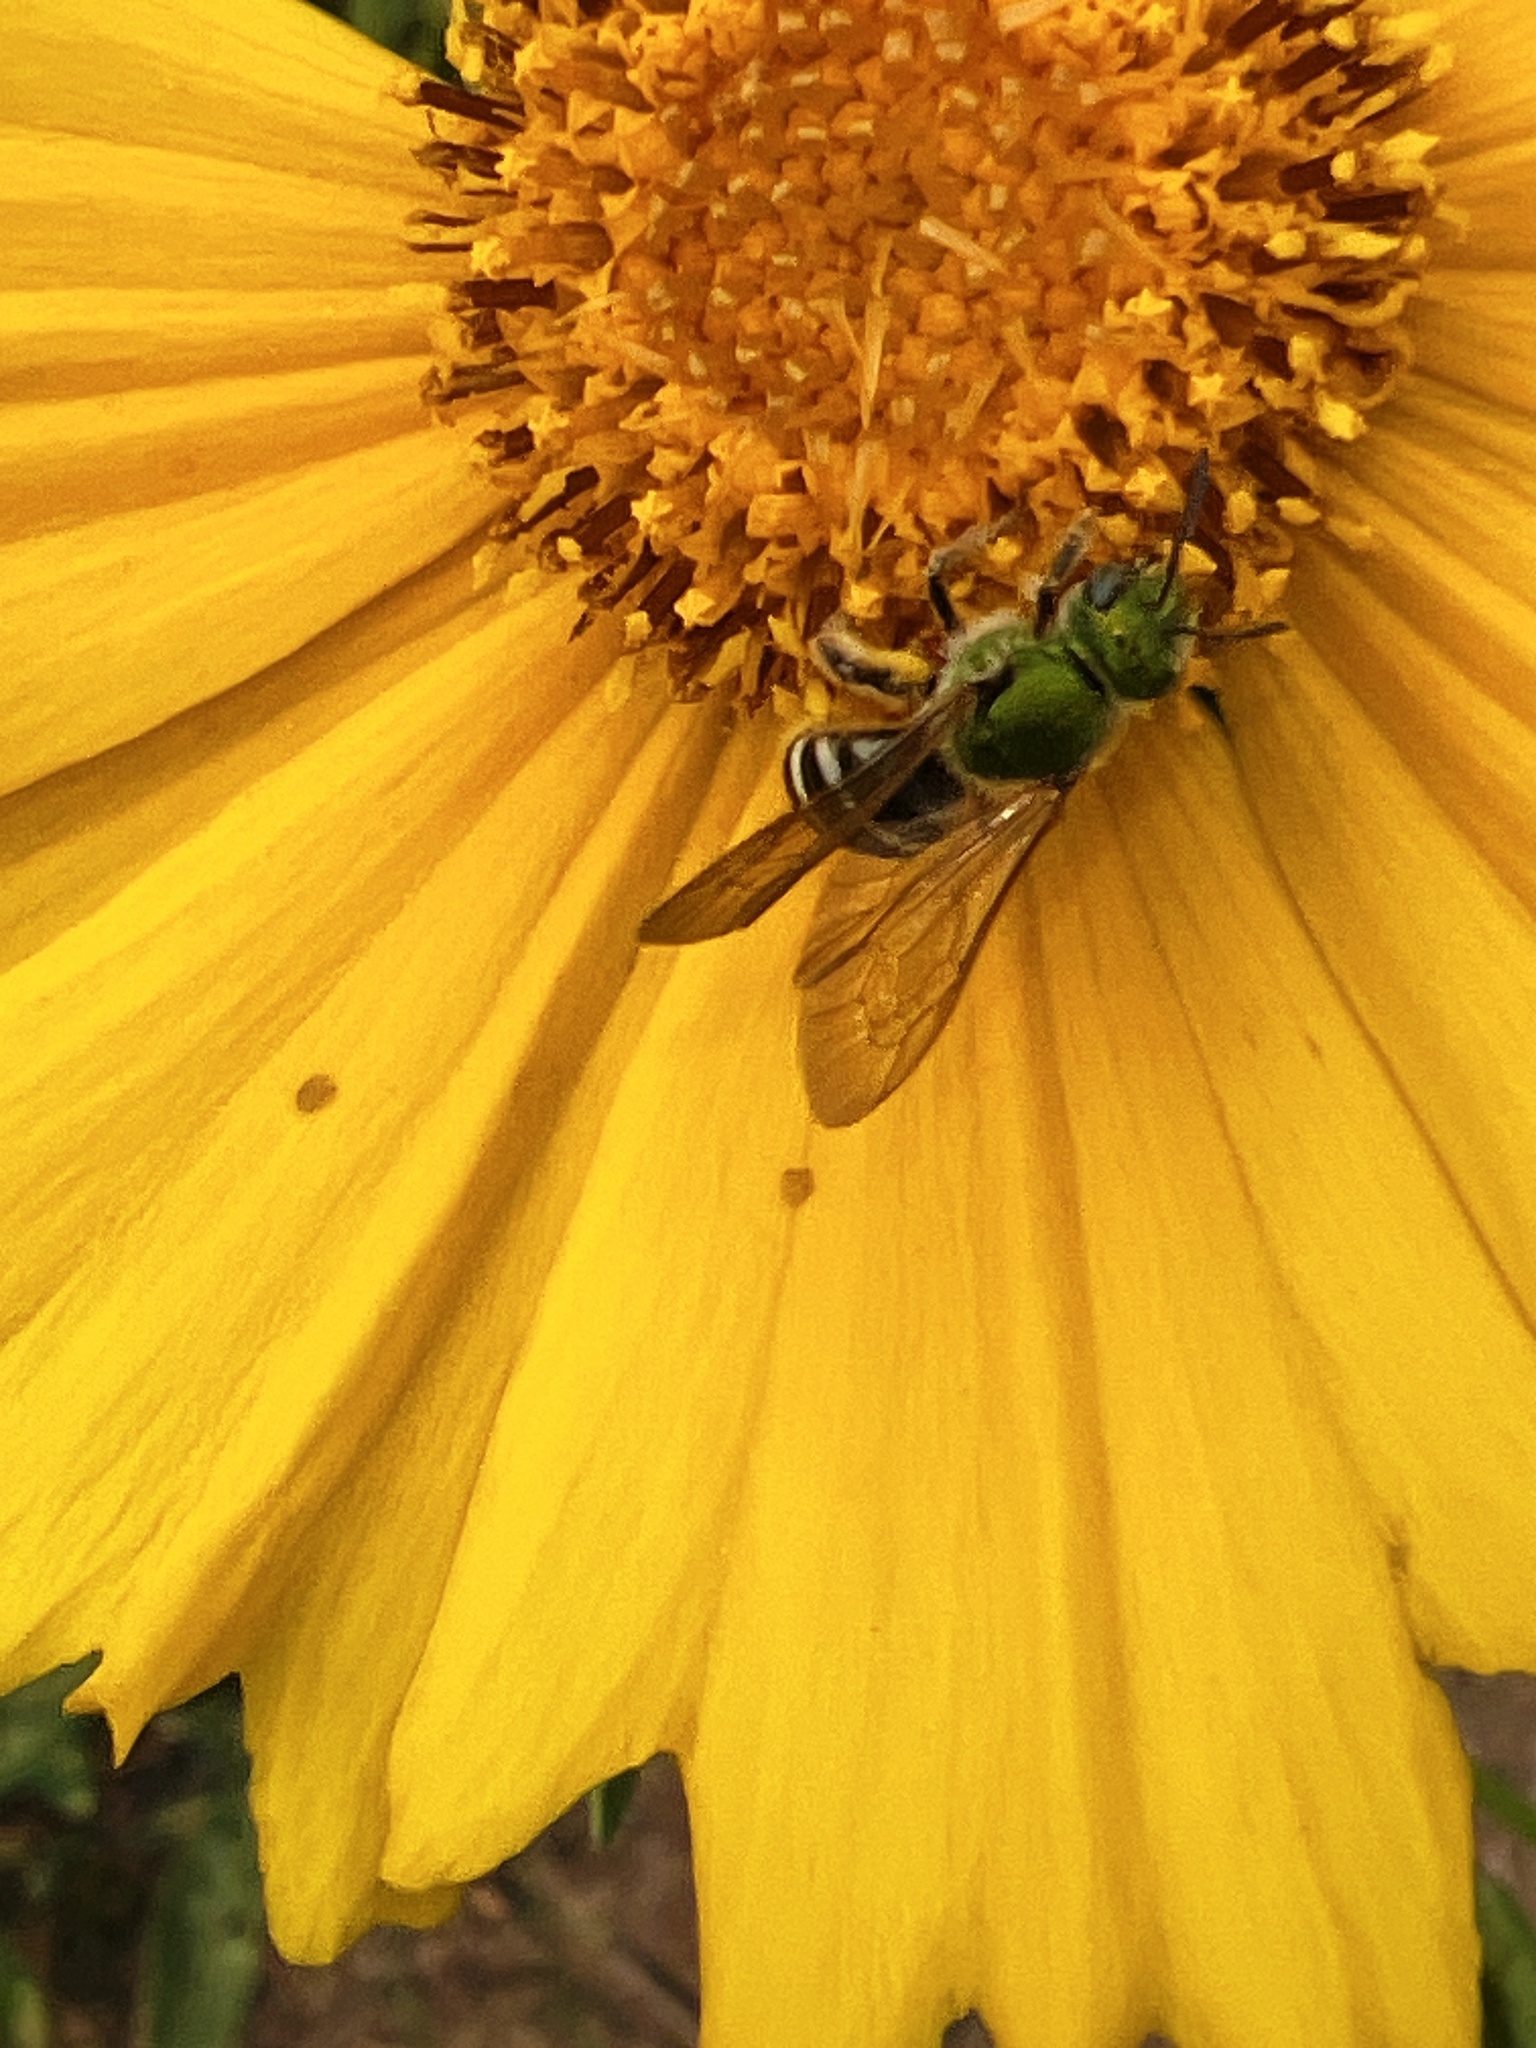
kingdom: Animalia
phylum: Arthropoda
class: Insecta
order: Hymenoptera
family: Halictidae
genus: Agapostemon
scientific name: Agapostemon virescens
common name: Bicolored striped sweat bee
